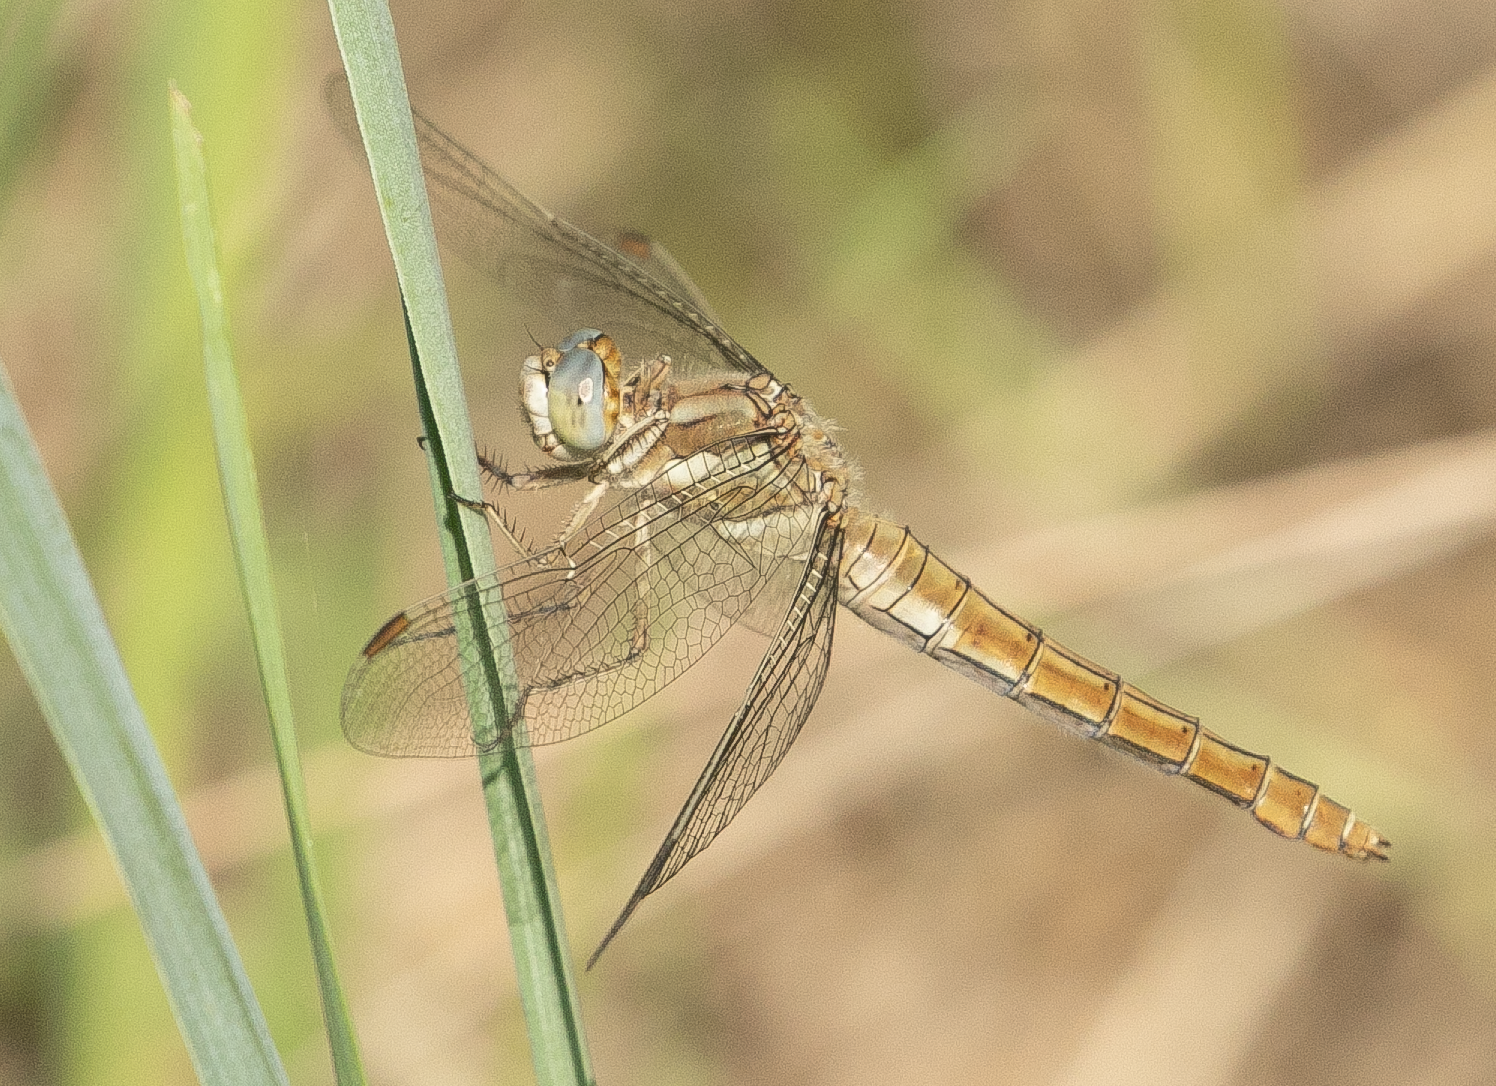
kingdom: Animalia
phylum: Arthropoda
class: Insecta
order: Odonata
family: Libellulidae
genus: Orthetrum
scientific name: Orthetrum brunneum
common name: Southern skimmer
